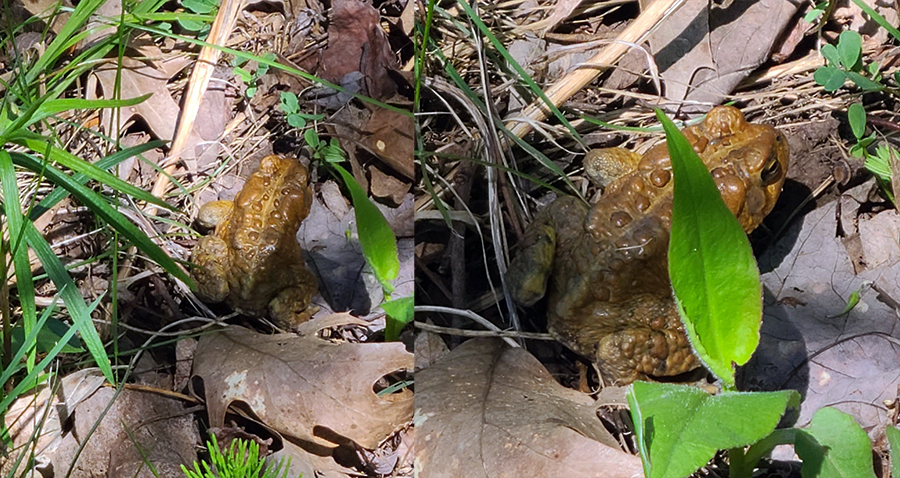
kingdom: Animalia
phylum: Chordata
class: Amphibia
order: Anura
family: Bufonidae
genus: Anaxyrus
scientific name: Anaxyrus americanus
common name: American toad
